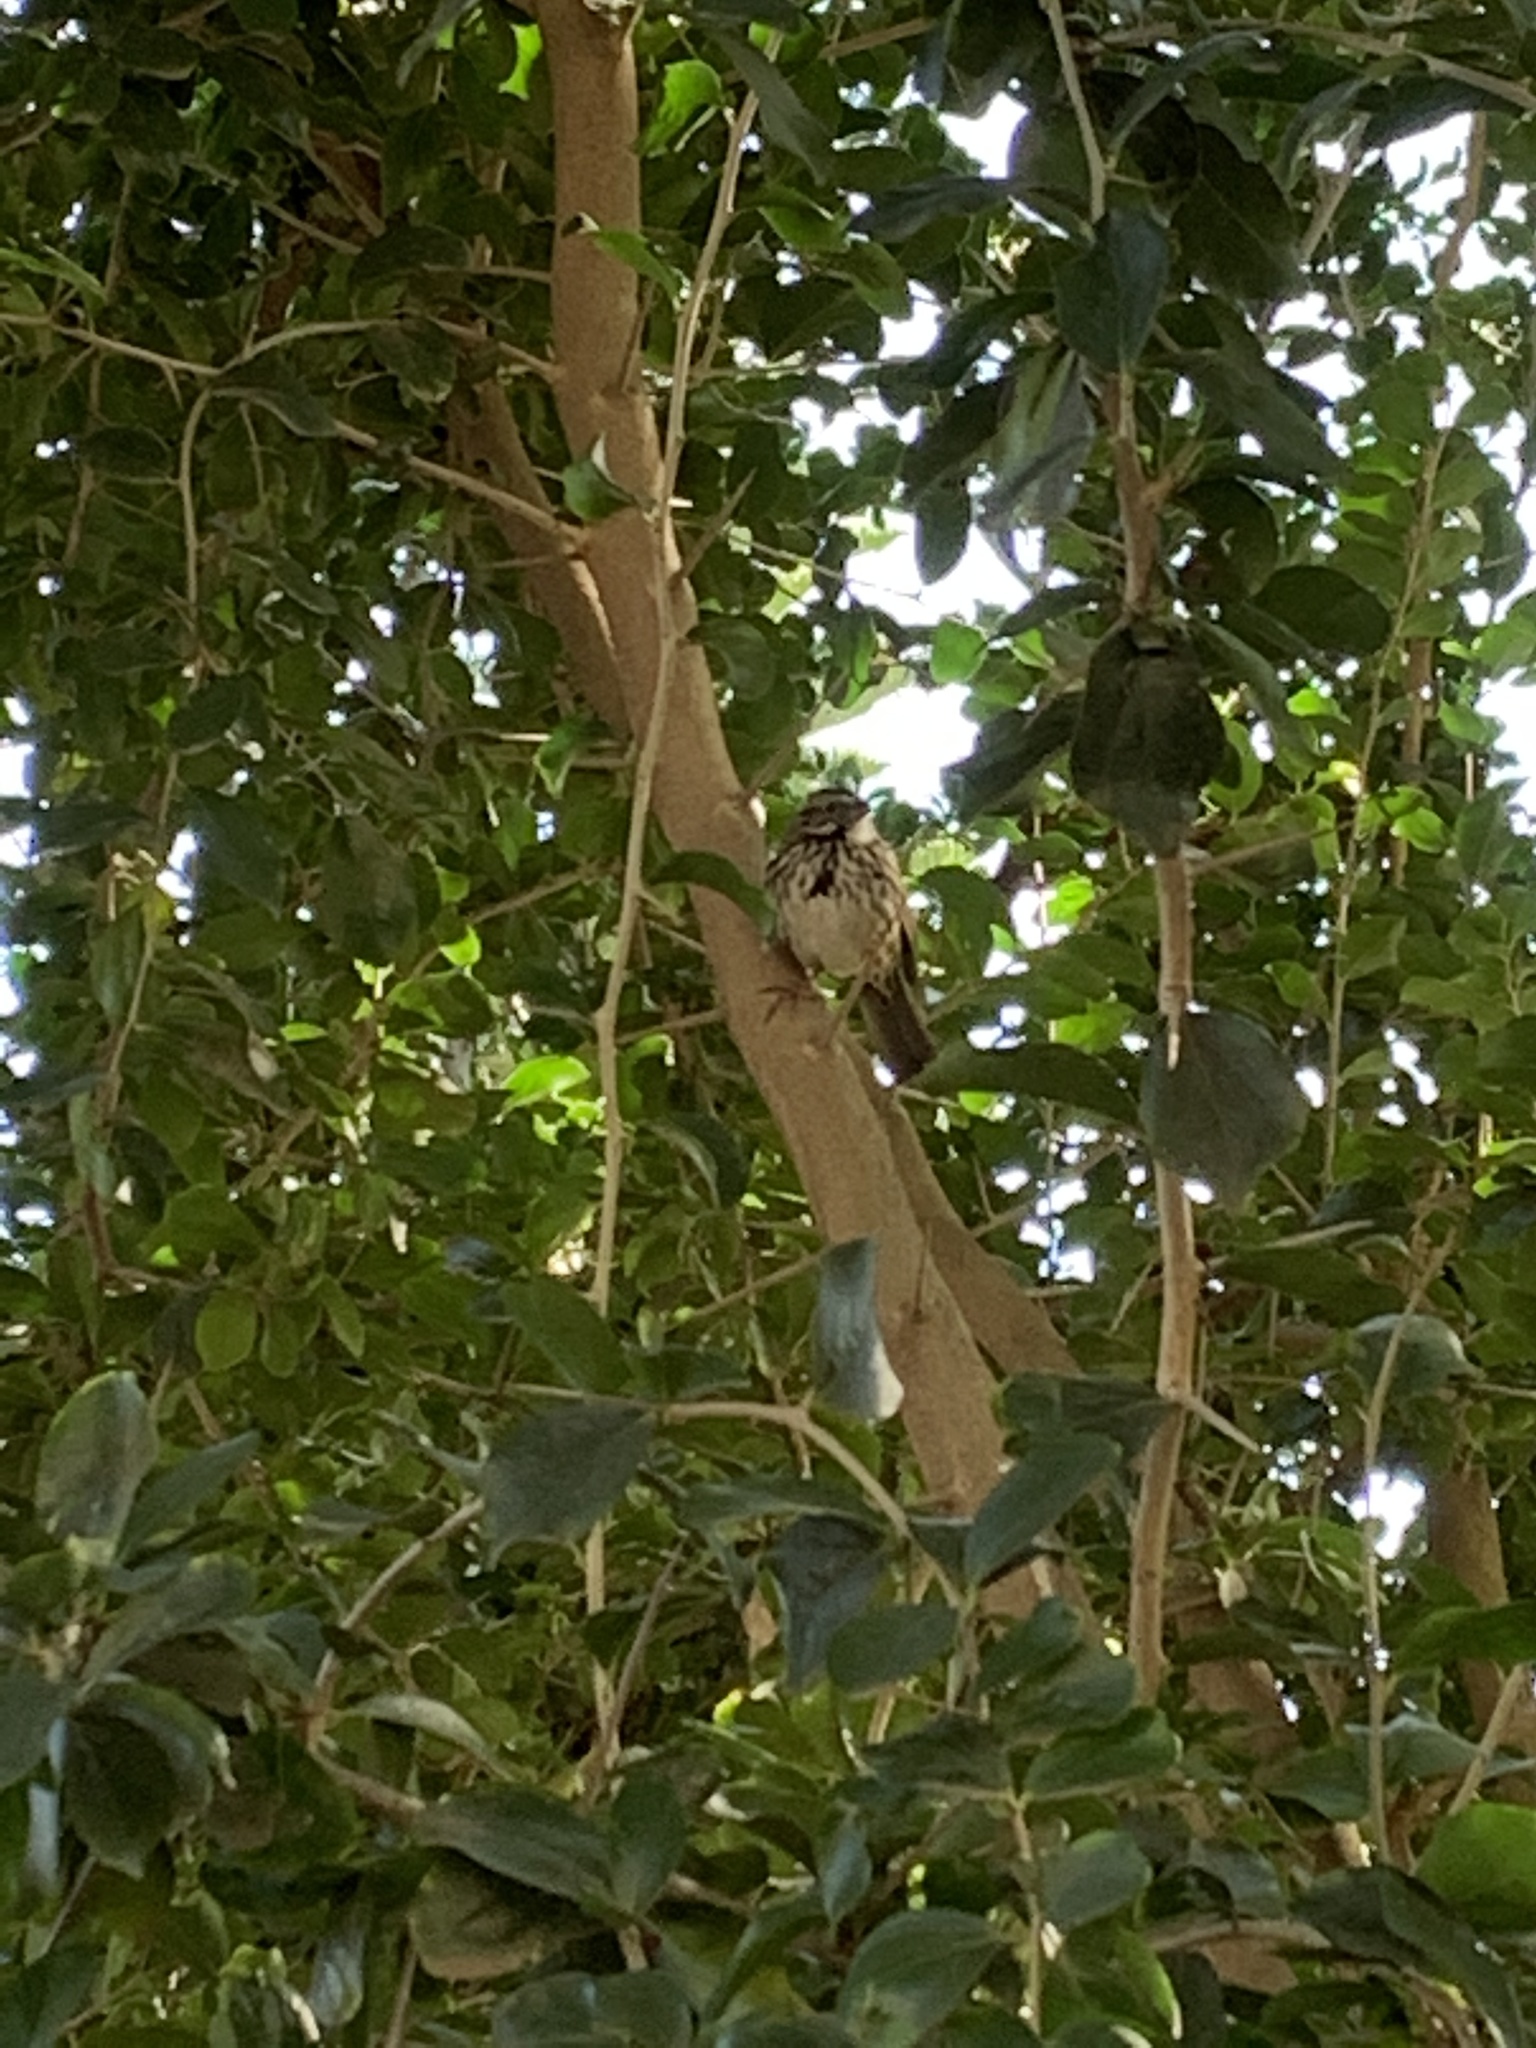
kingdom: Animalia
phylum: Chordata
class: Aves
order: Passeriformes
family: Passerellidae
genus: Melospiza
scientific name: Melospiza melodia
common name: Song sparrow
